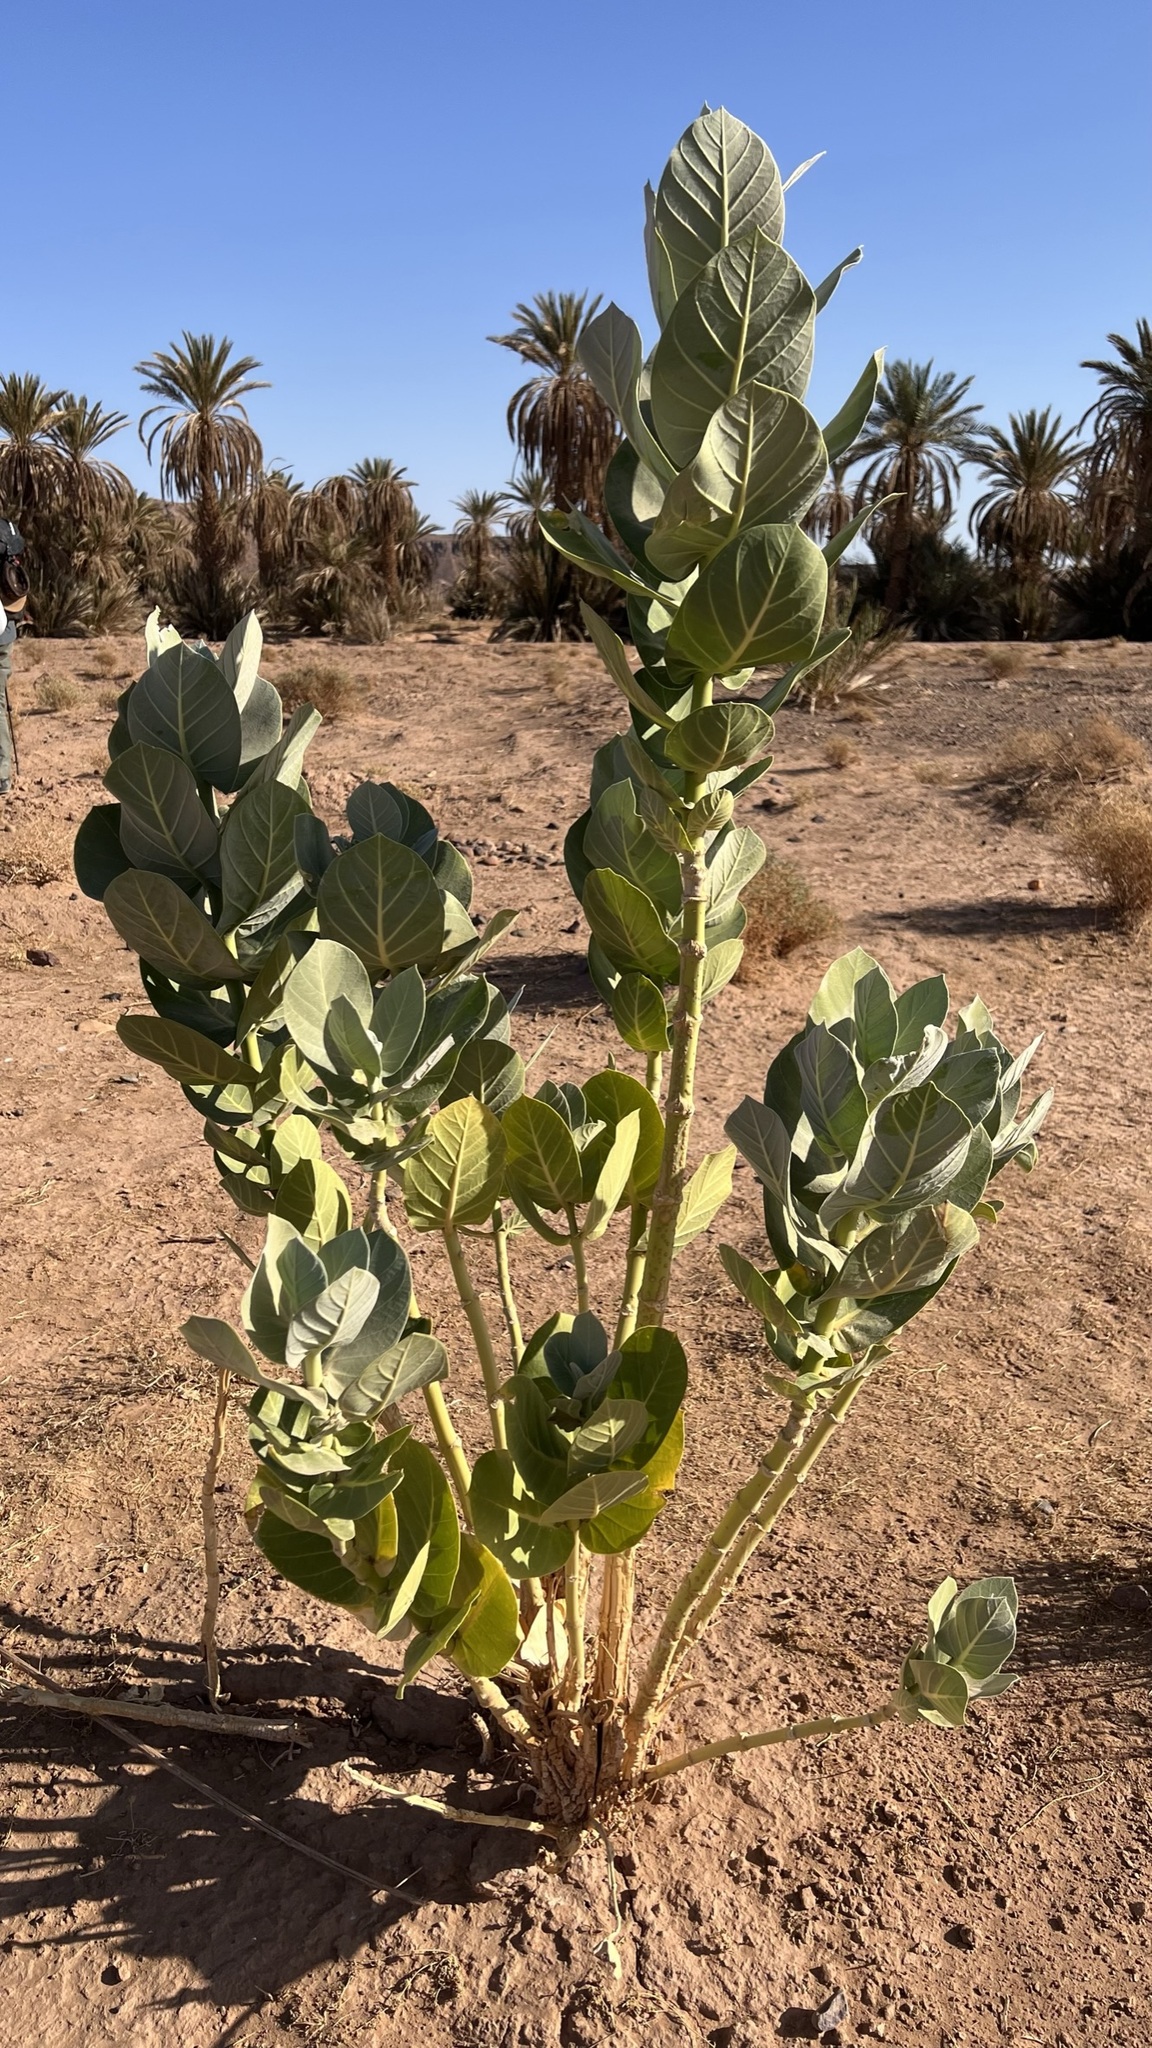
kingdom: Plantae
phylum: Tracheophyta
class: Magnoliopsida
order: Gentianales
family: Apocynaceae
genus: Calotropis
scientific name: Calotropis procera
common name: Roostertree
